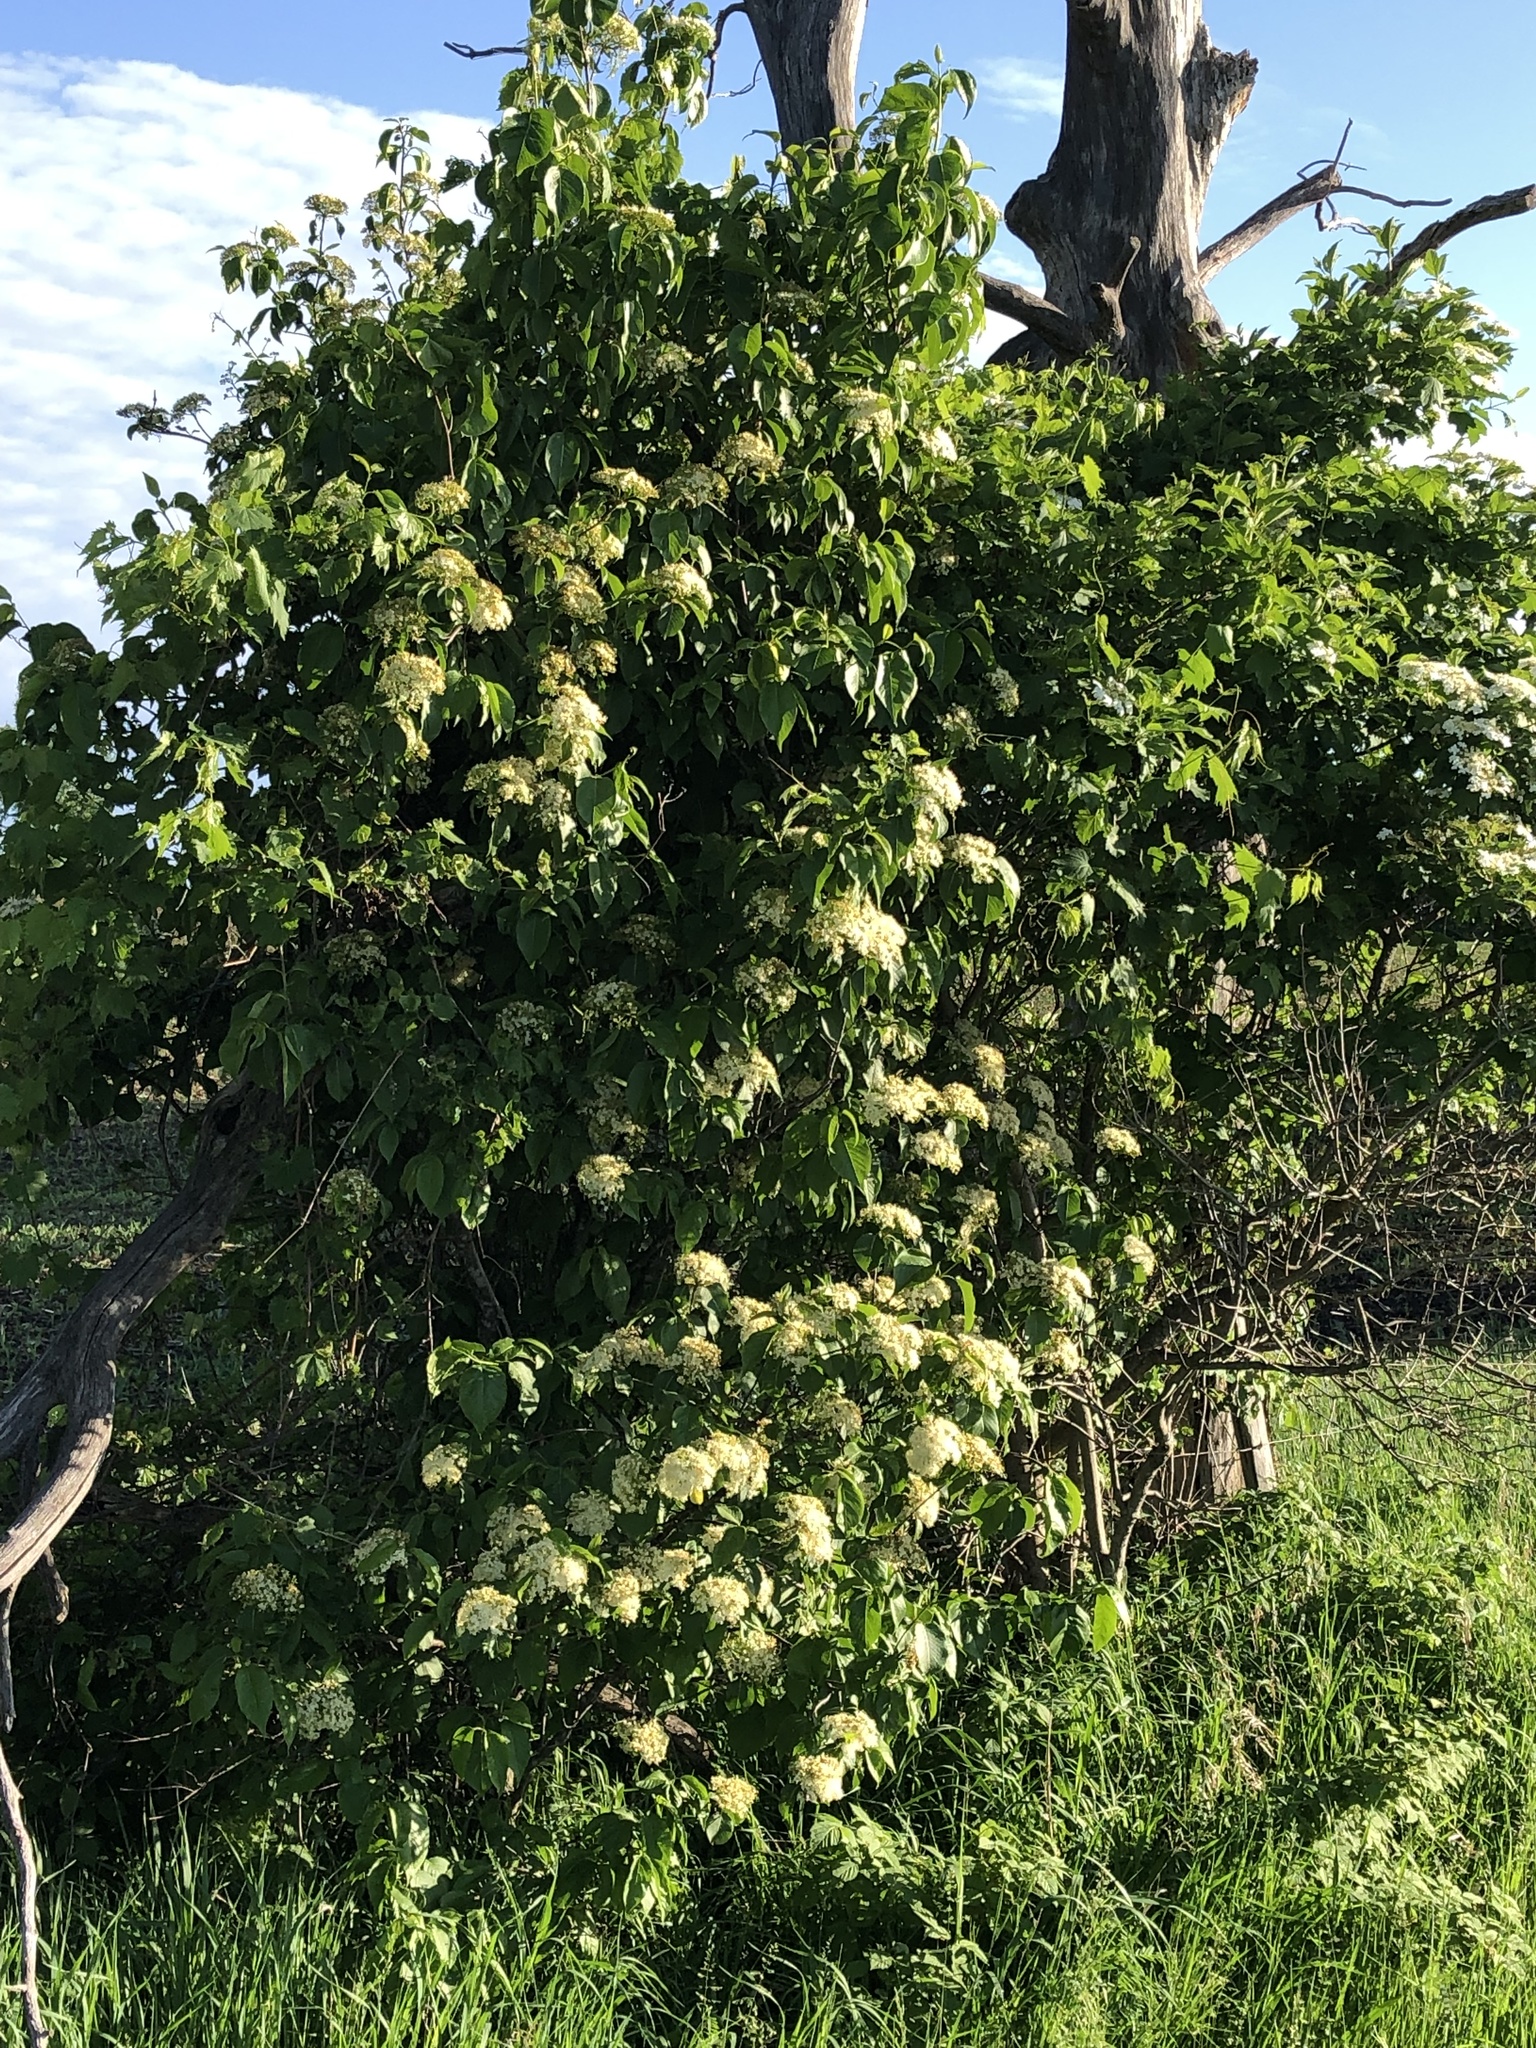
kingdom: Plantae
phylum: Tracheophyta
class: Magnoliopsida
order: Dipsacales
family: Viburnaceae
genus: Viburnum
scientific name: Viburnum lentago
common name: Black haw
